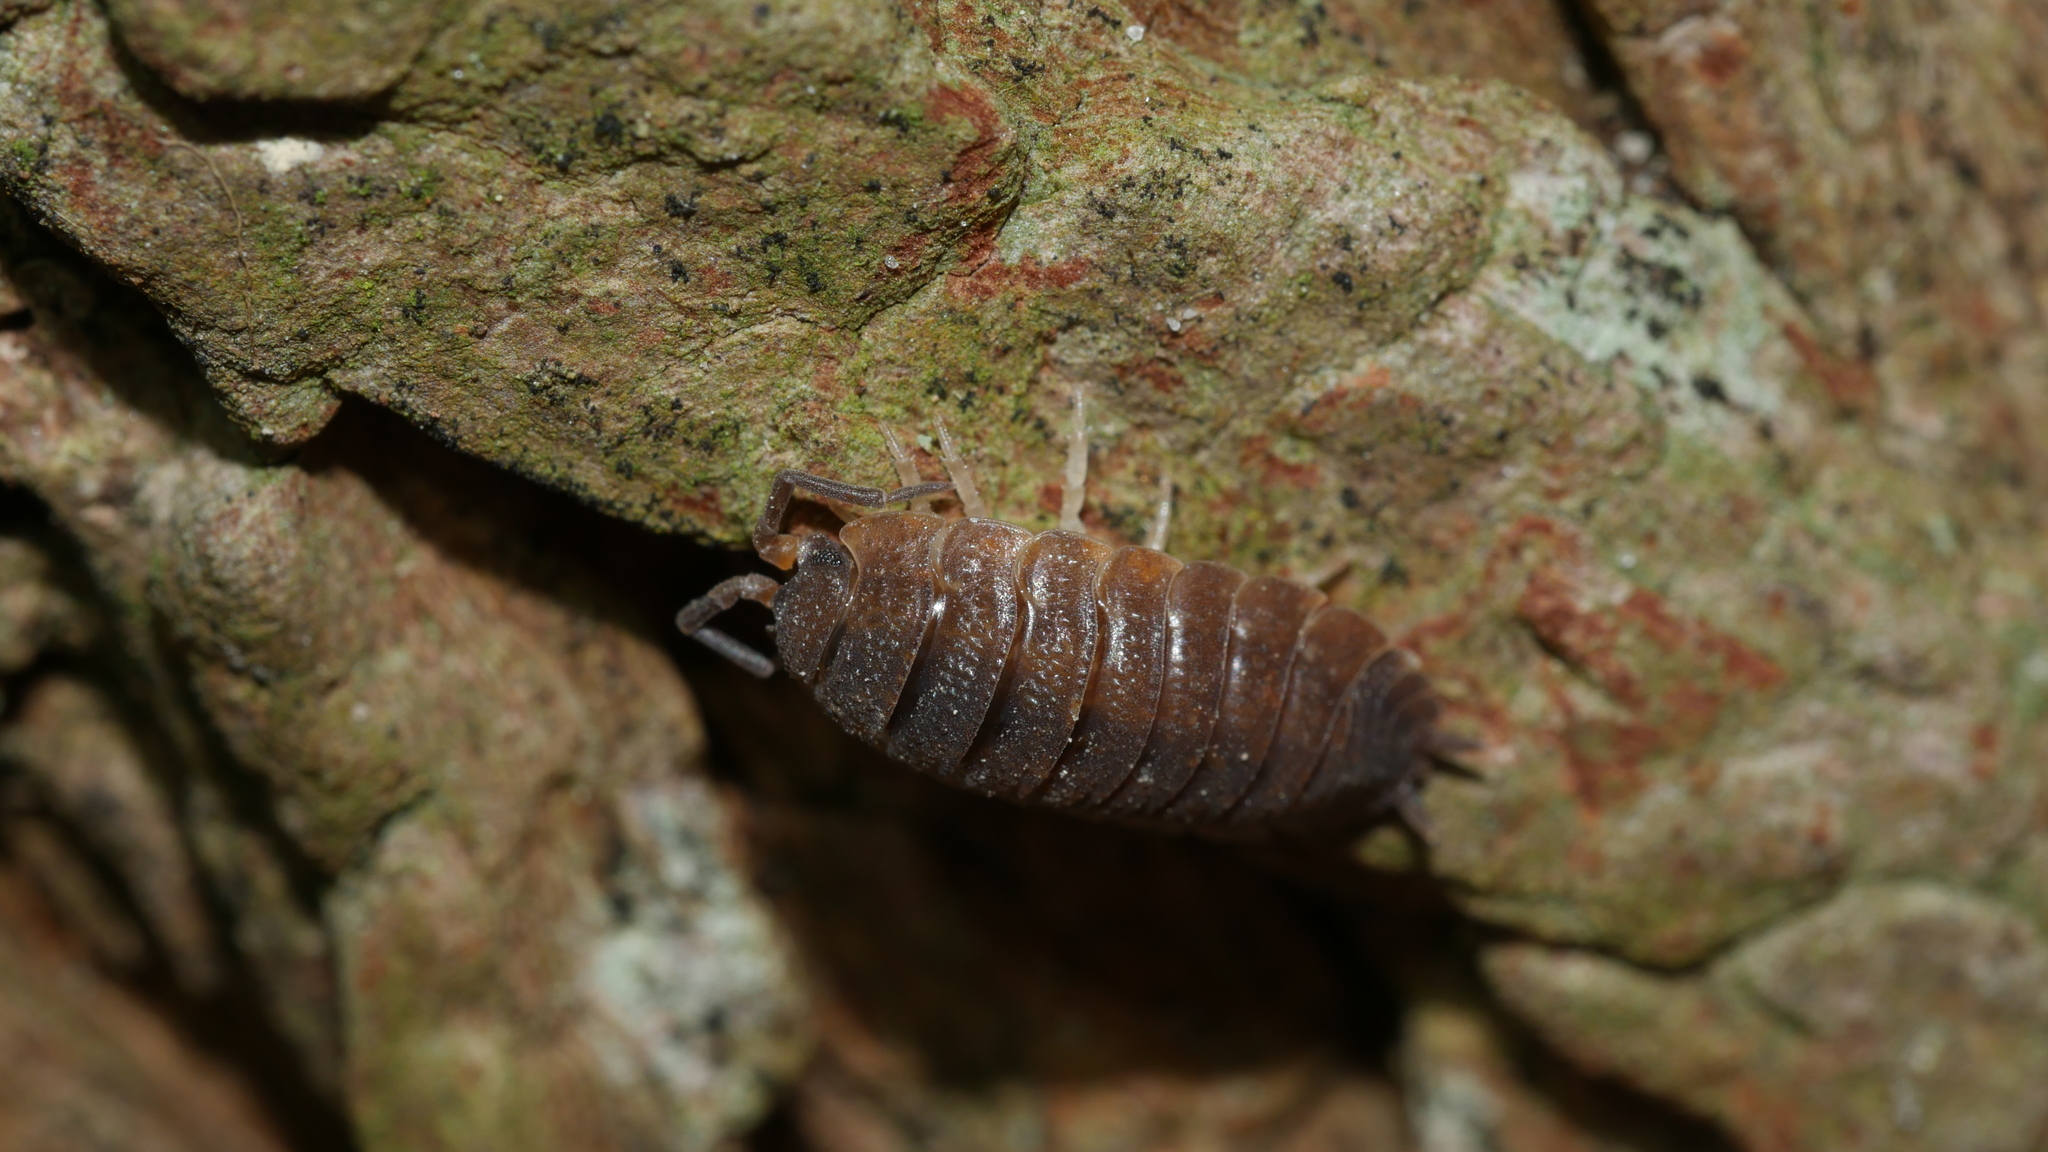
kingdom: Animalia
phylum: Arthropoda
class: Malacostraca
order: Isopoda
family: Porcellionidae
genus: Porcellio
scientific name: Porcellio scaber
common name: Common rough woodlouse
